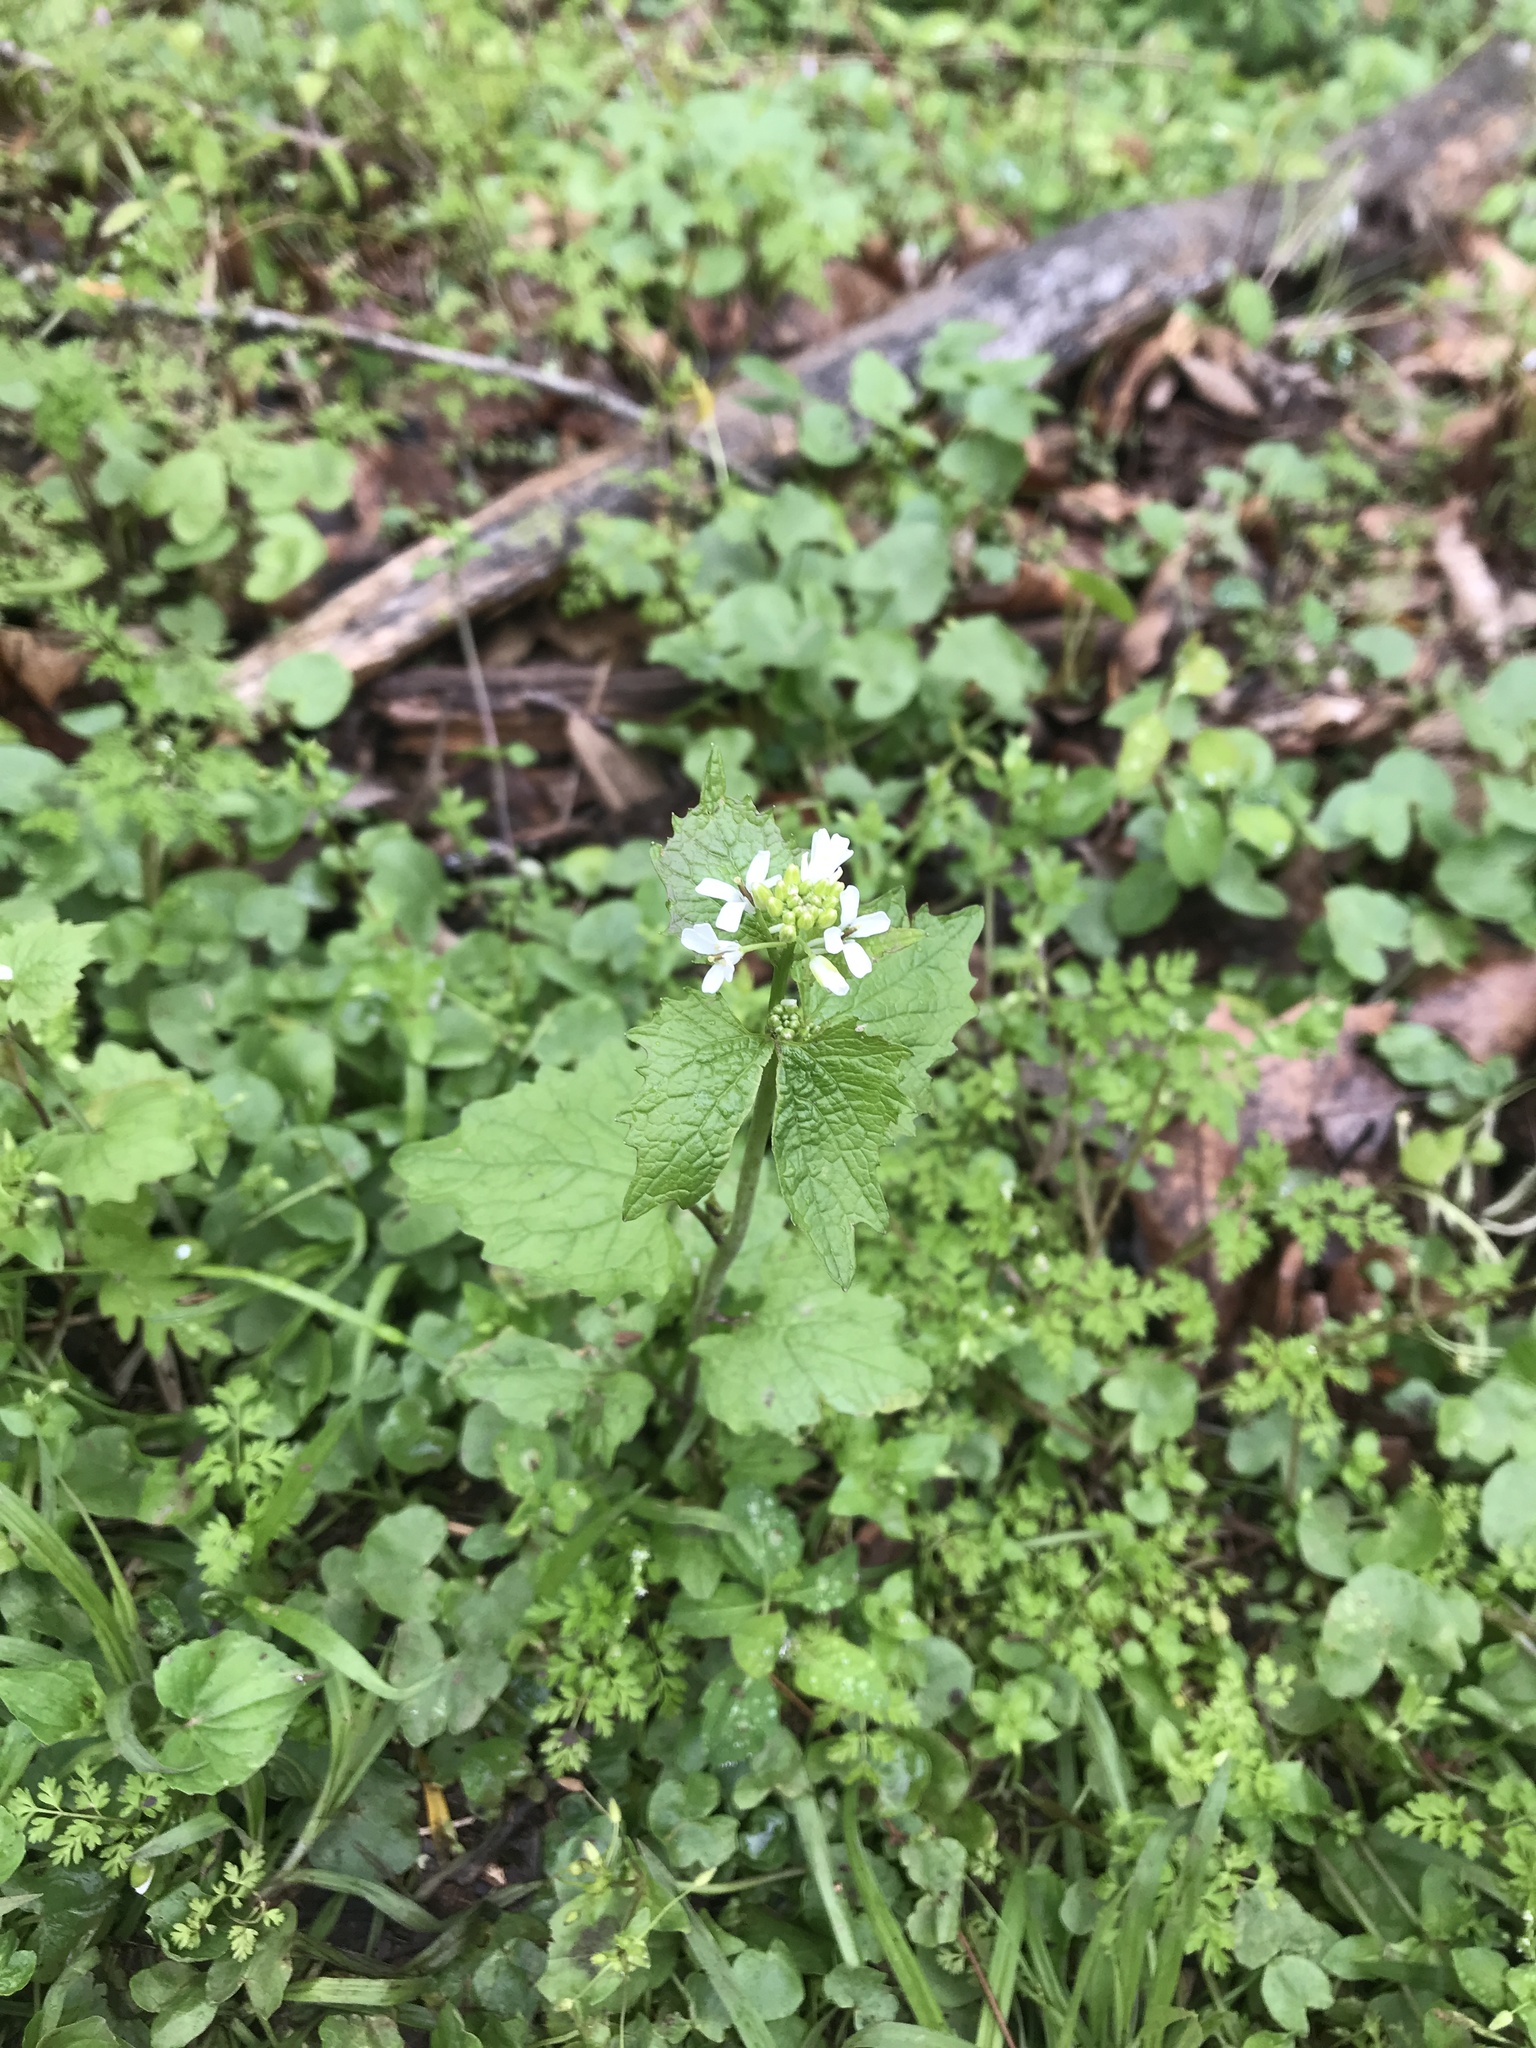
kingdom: Plantae
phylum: Tracheophyta
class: Magnoliopsida
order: Brassicales
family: Brassicaceae
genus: Alliaria
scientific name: Alliaria petiolata
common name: Garlic mustard
